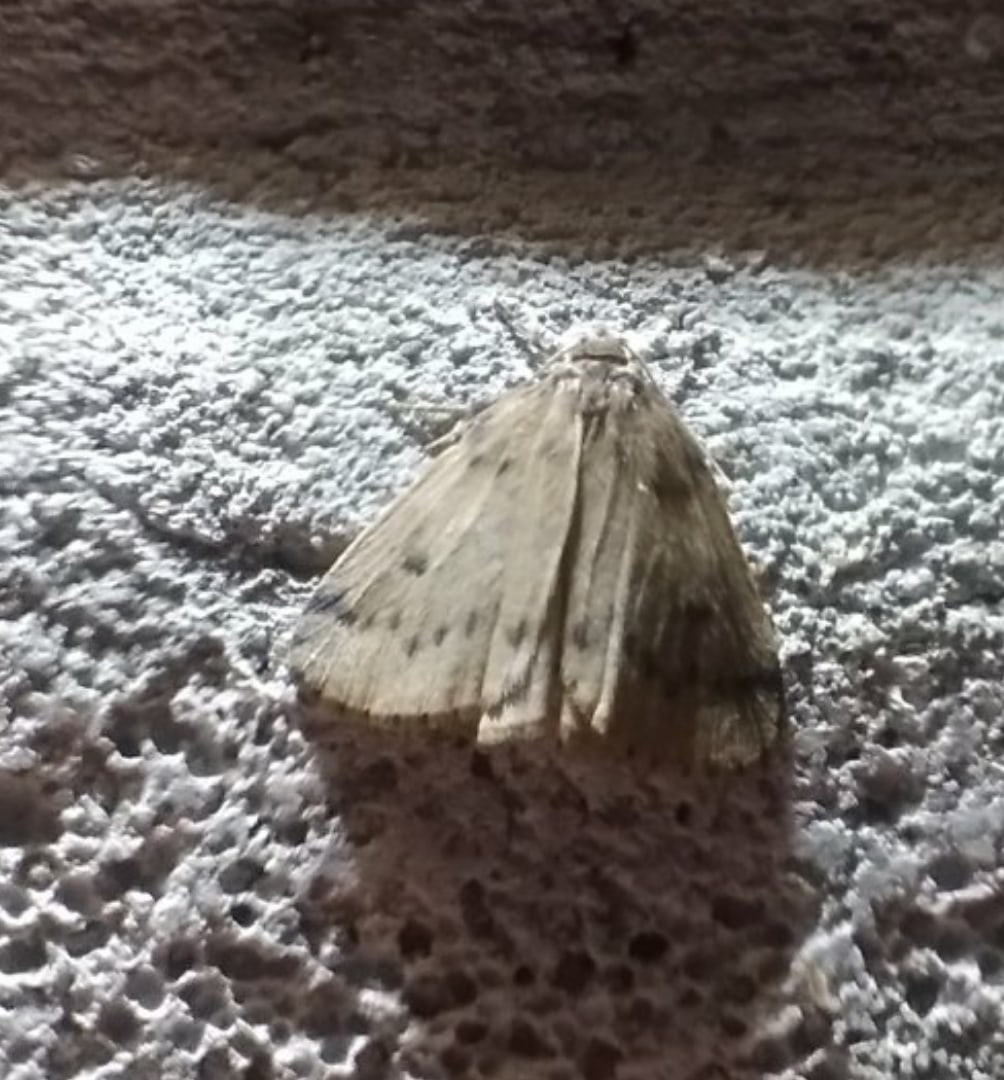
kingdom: Animalia
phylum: Arthropoda
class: Insecta
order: Lepidoptera
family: Erebidae
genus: Thumatha
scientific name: Thumatha senex
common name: Round-winged muslin
